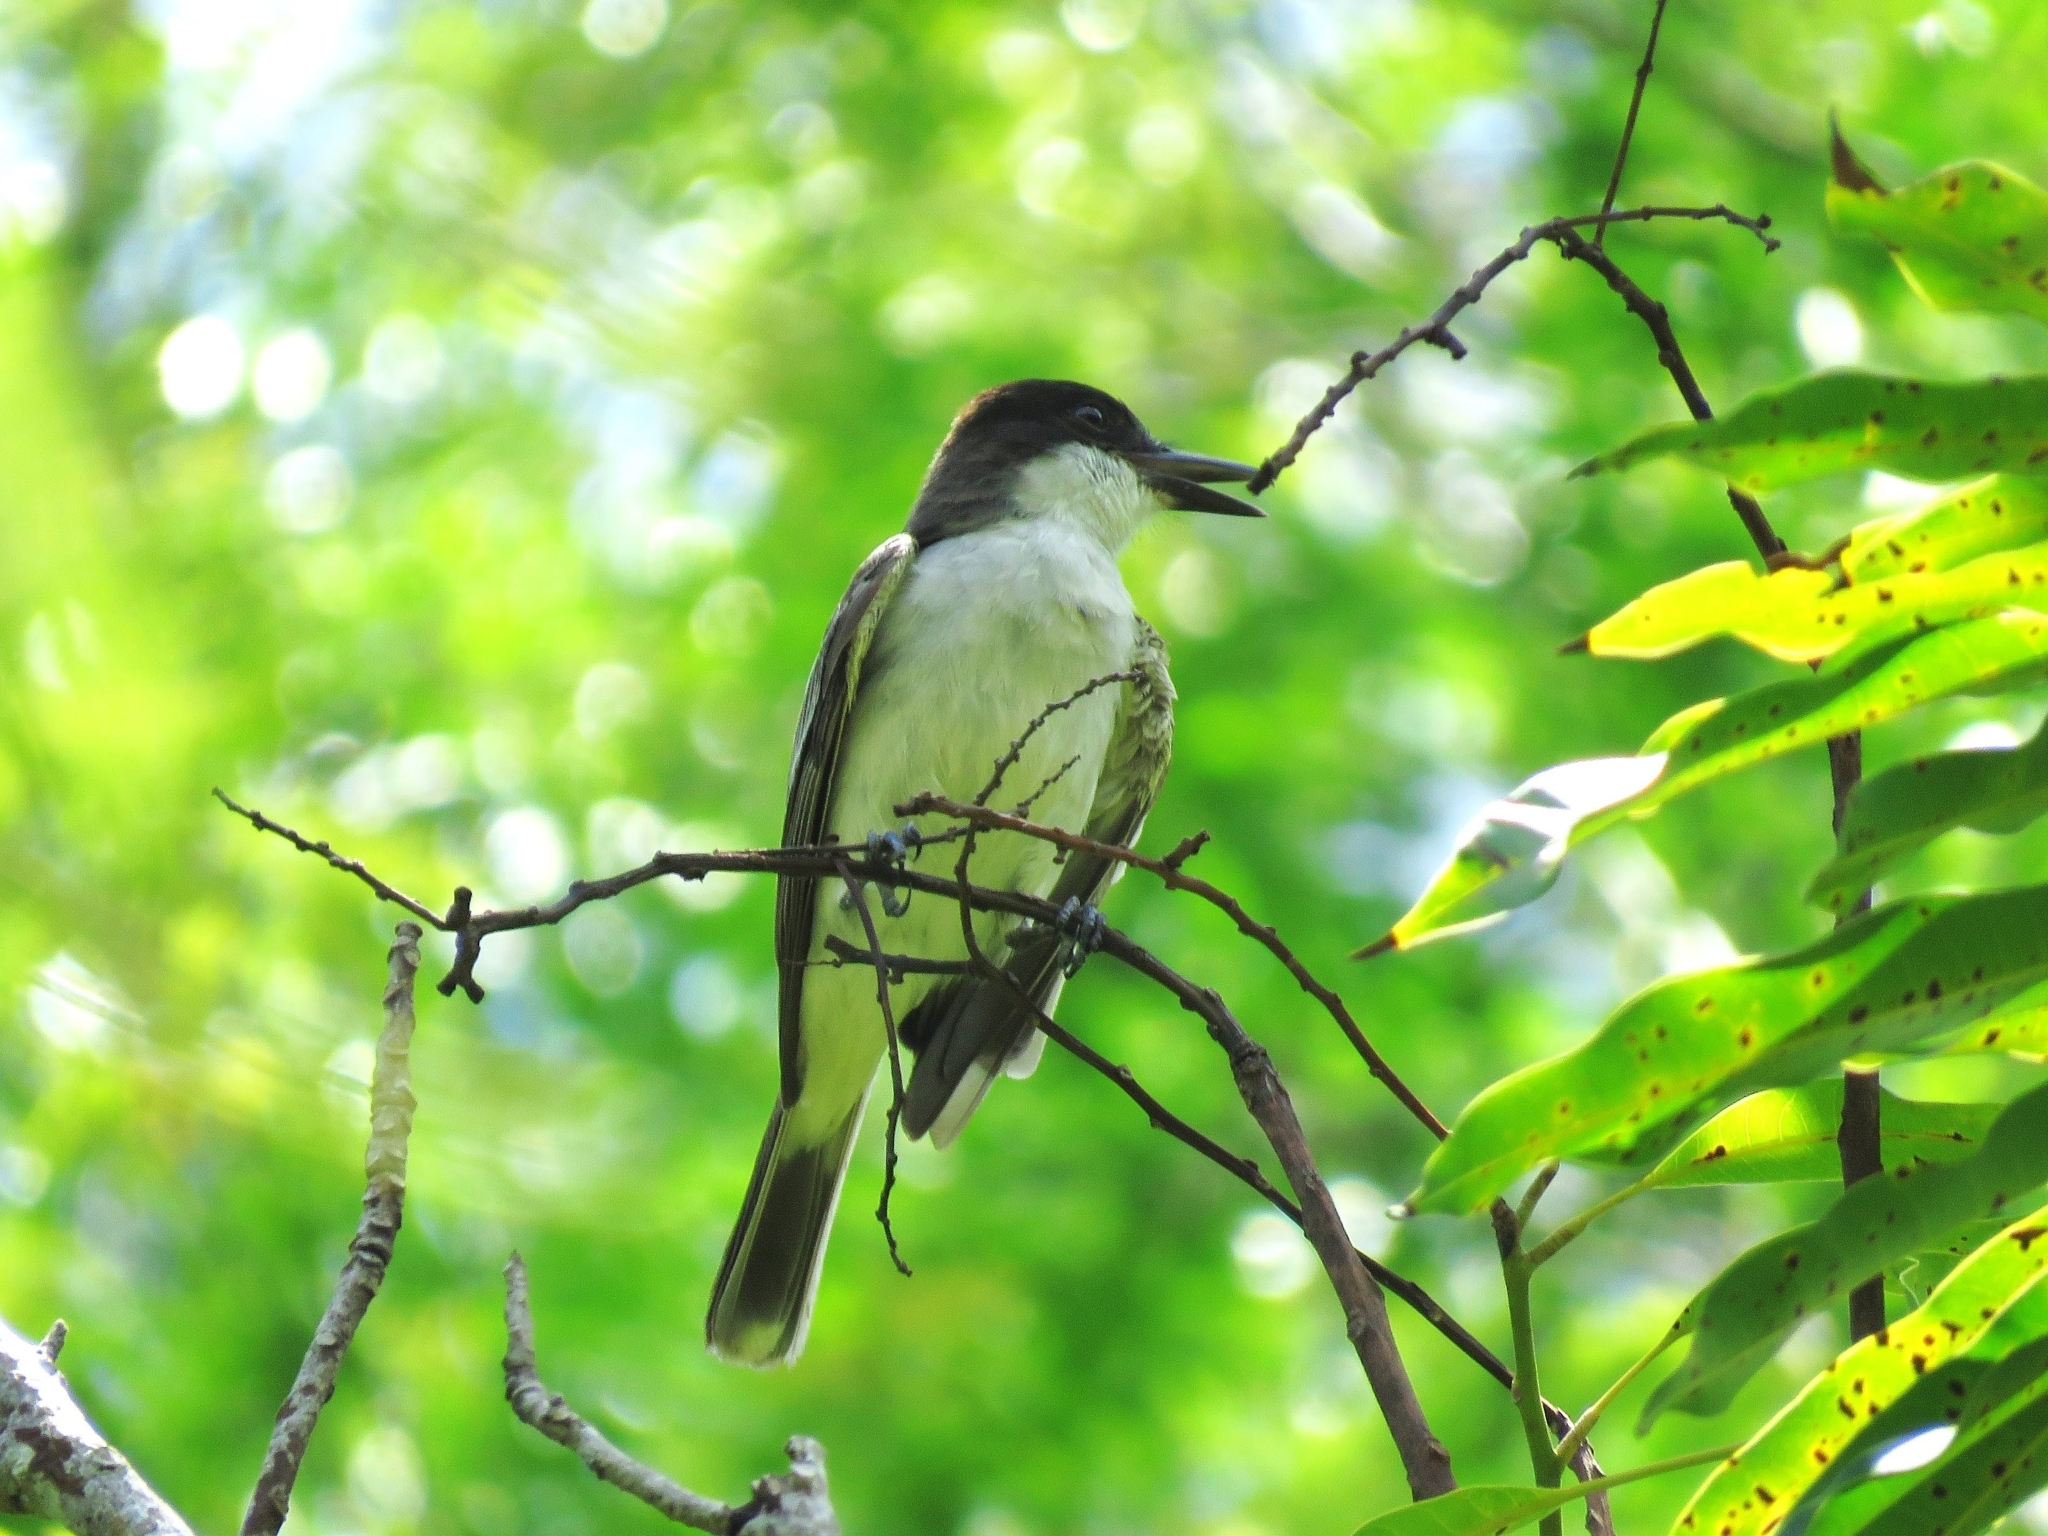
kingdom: Animalia
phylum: Chordata
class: Aves
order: Passeriformes
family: Tyrannidae
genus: Tyrannus
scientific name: Tyrannus caudifasciatus
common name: Loggerhead kingbird
